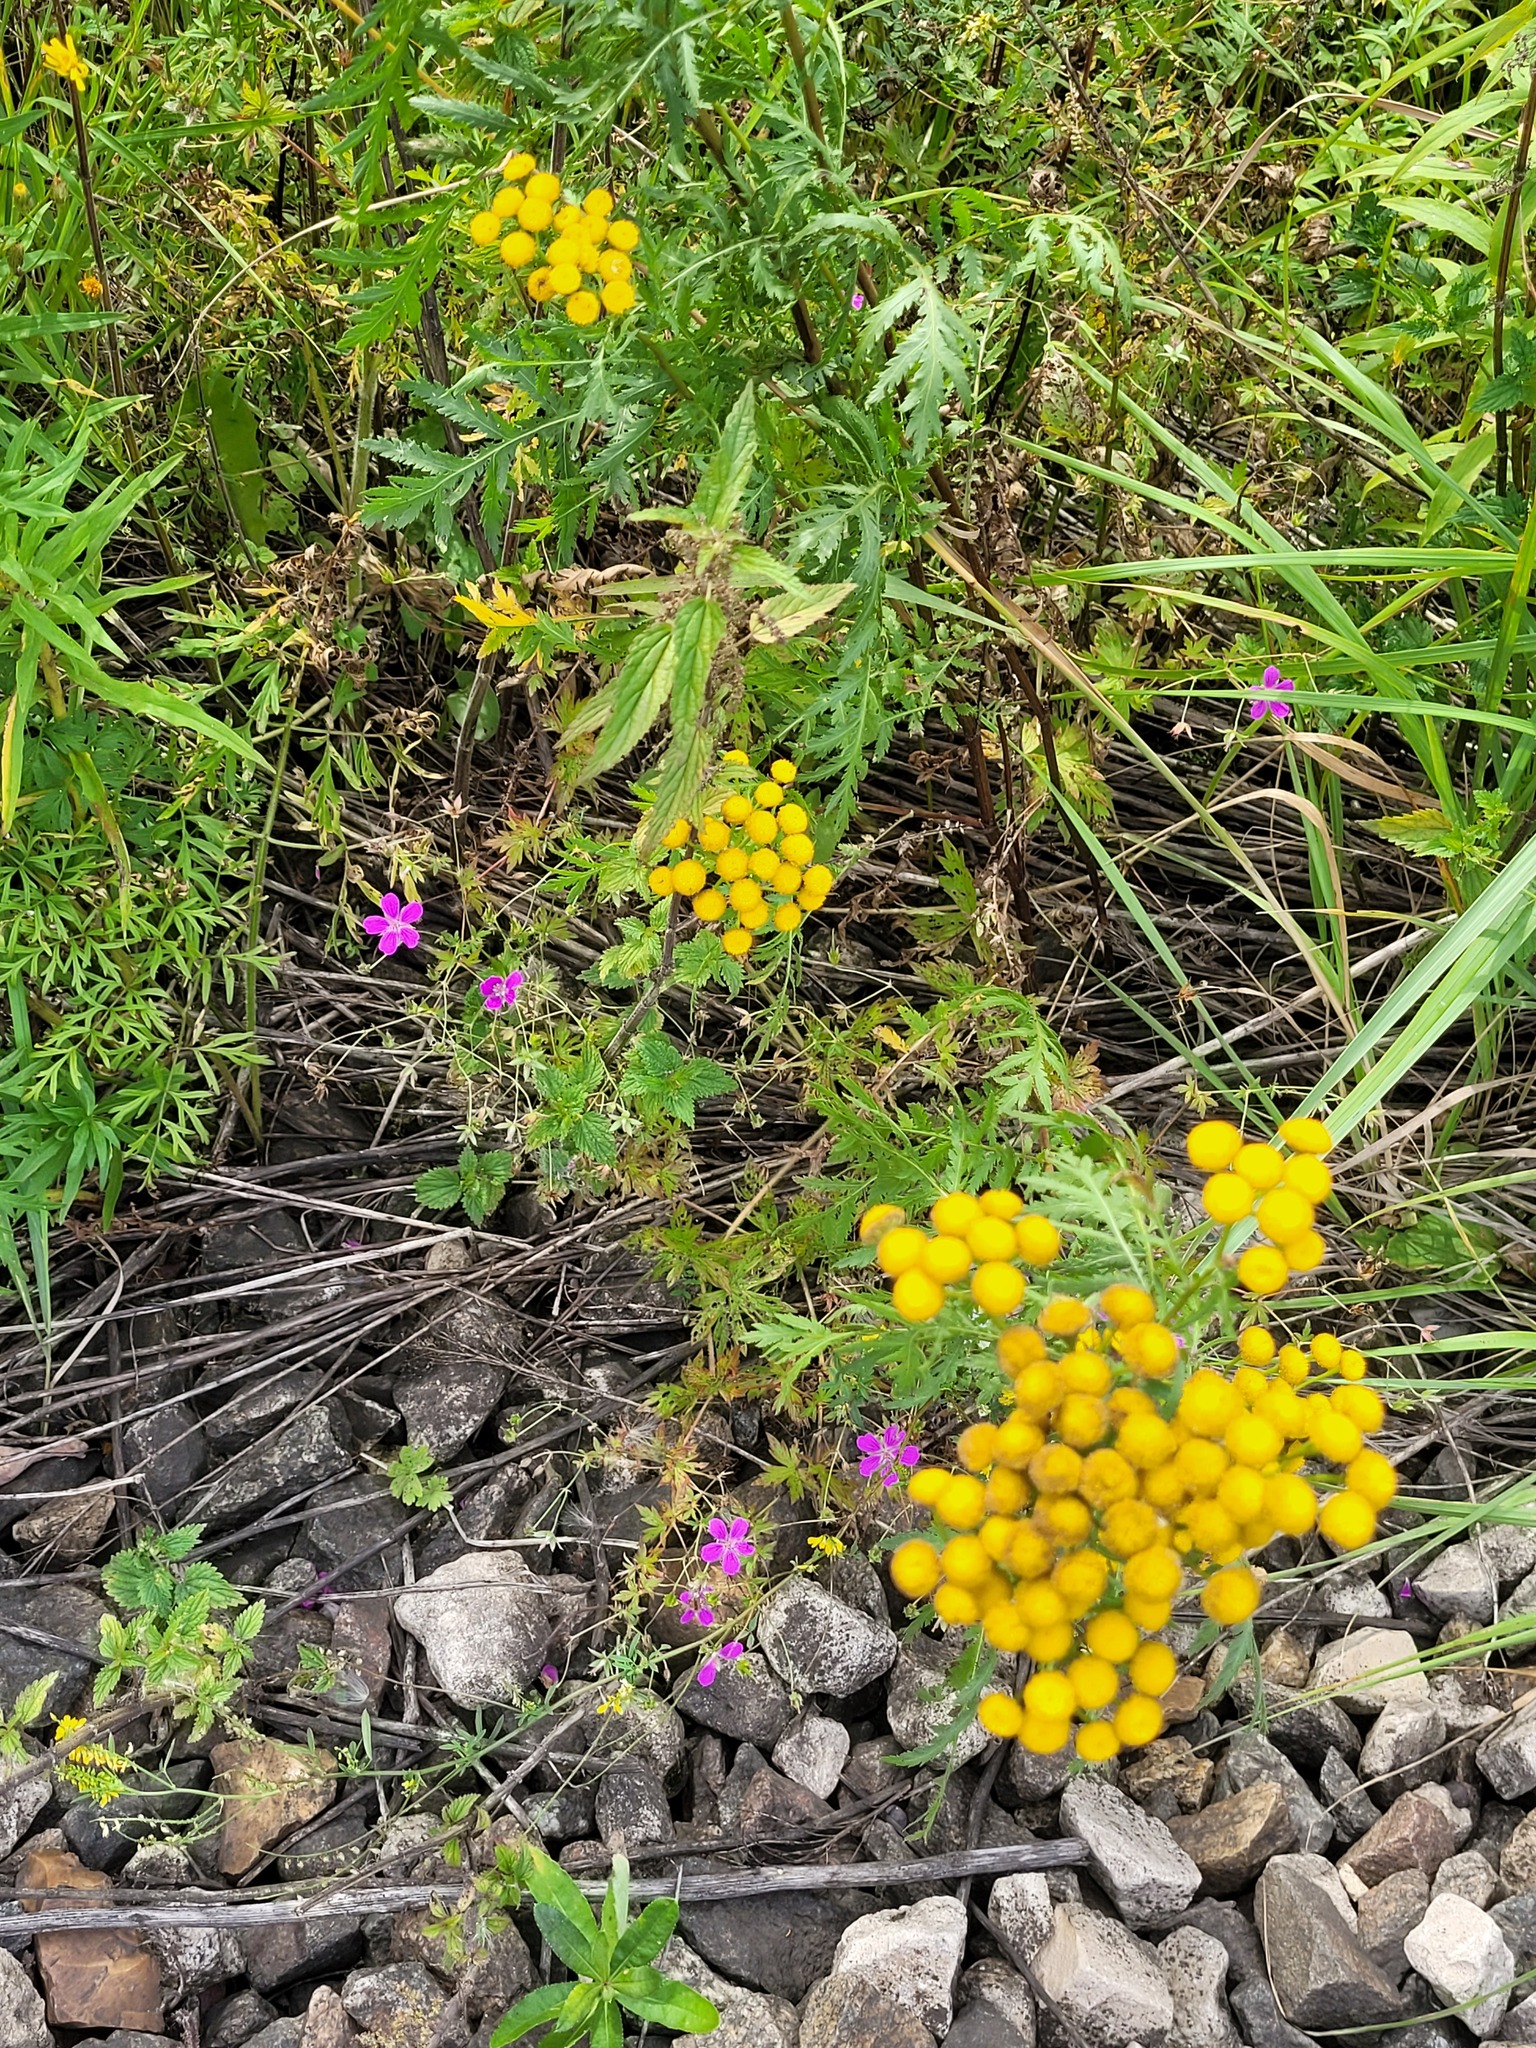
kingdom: Plantae
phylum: Tracheophyta
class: Magnoliopsida
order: Geraniales
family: Geraniaceae
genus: Geranium
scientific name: Geranium palustre
